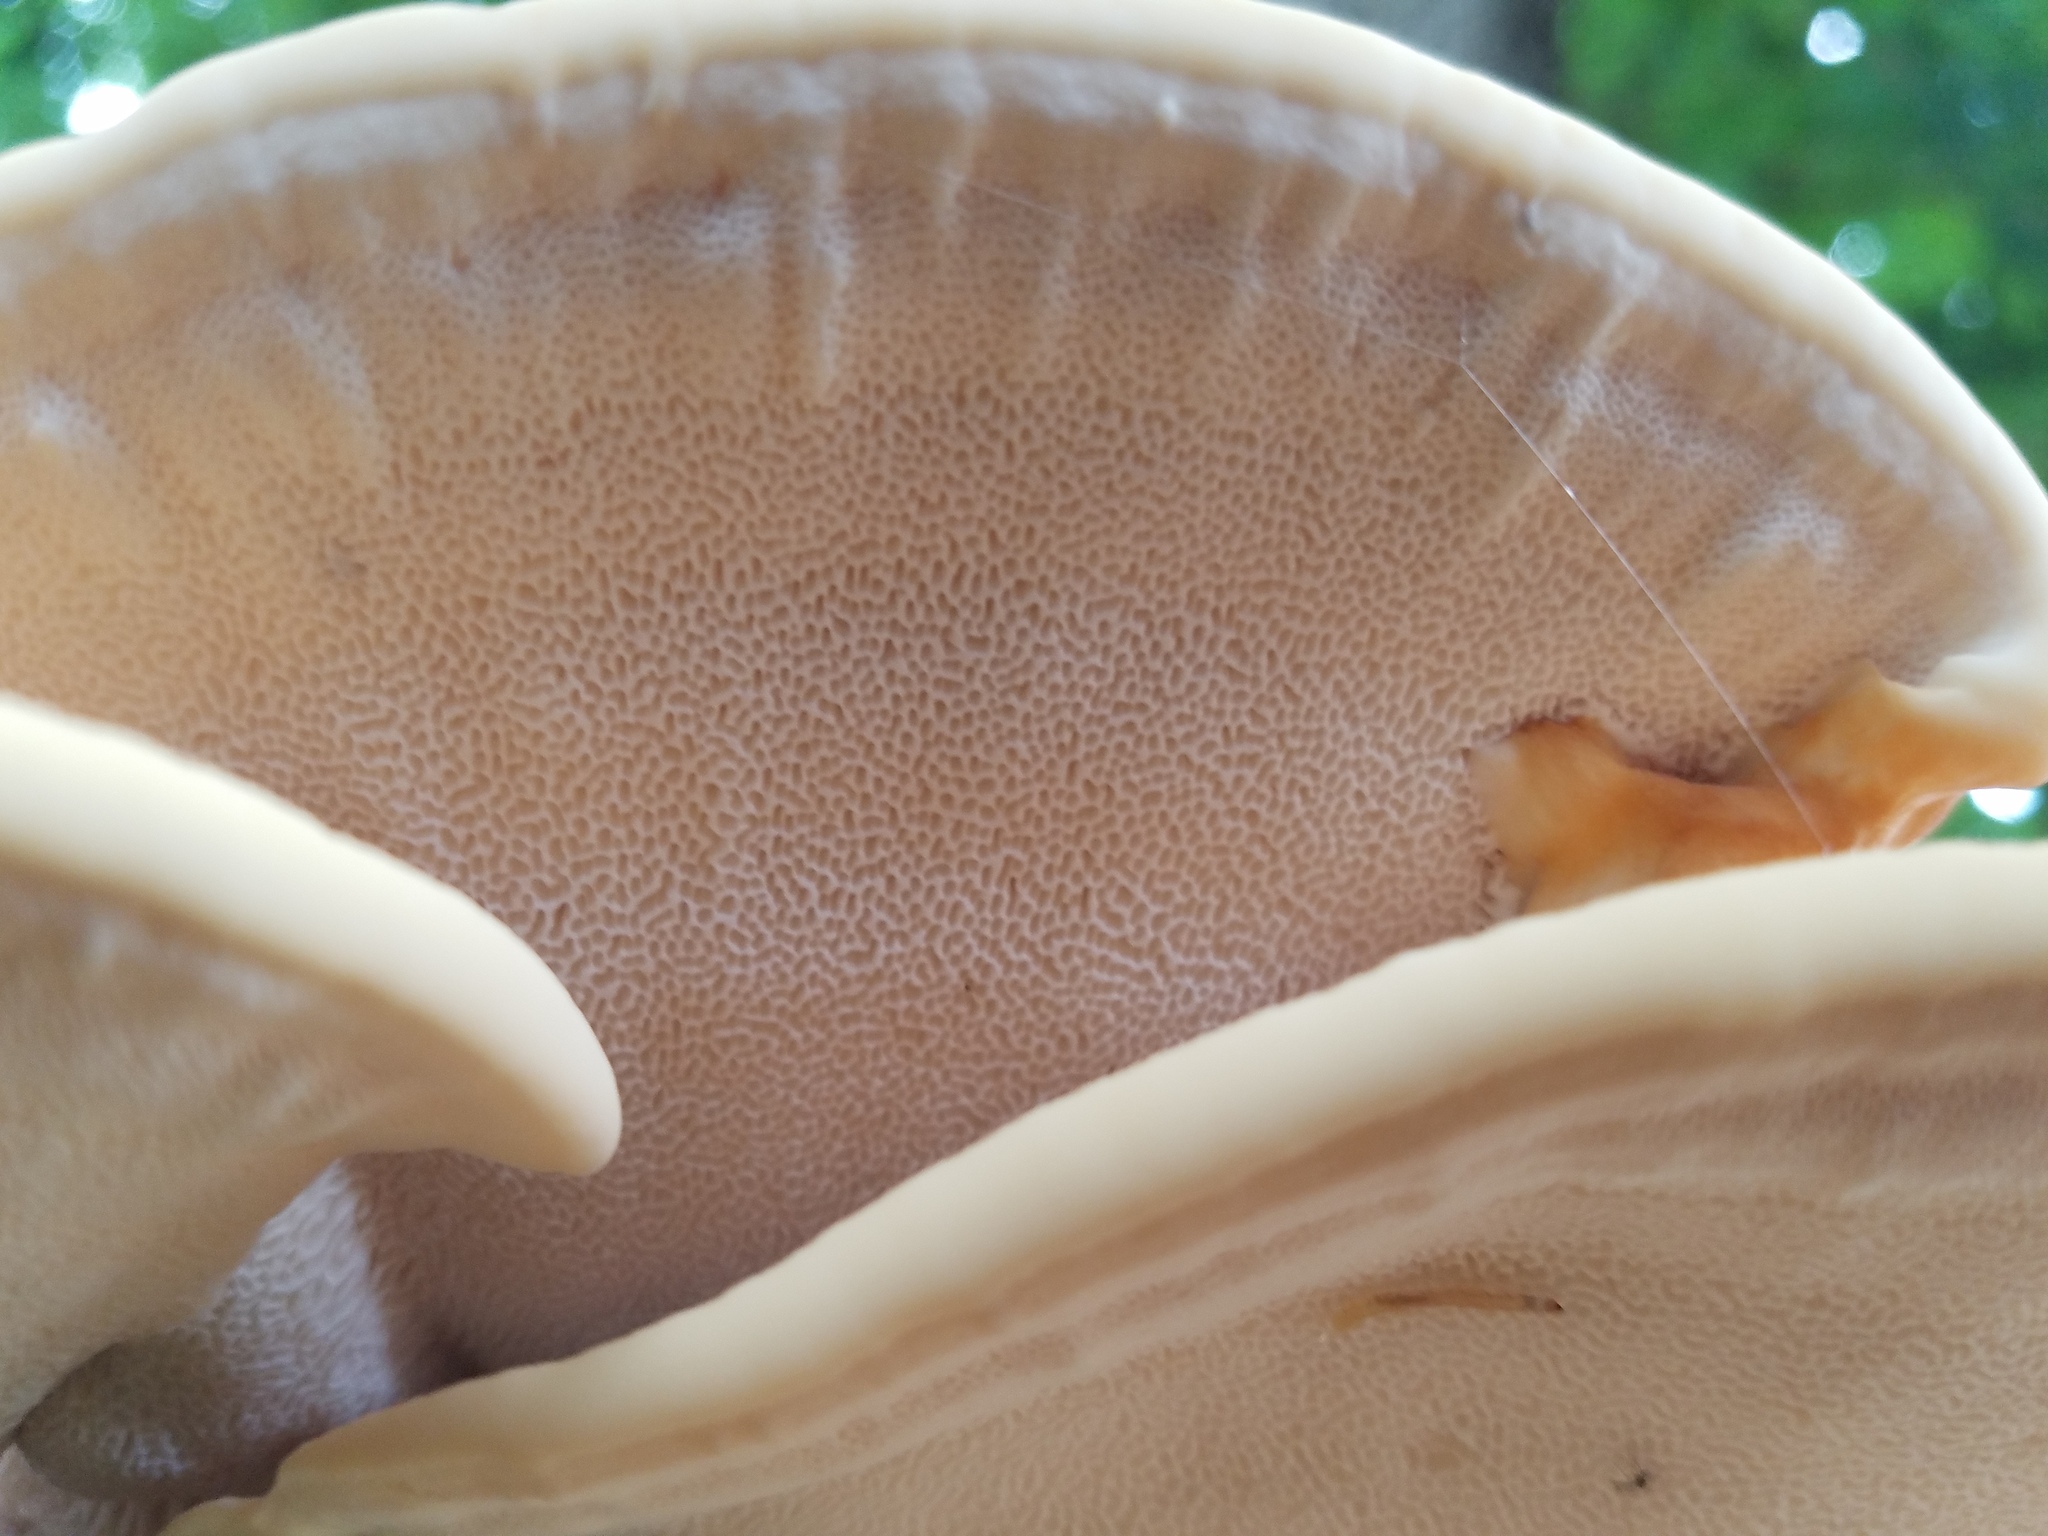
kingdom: Fungi
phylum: Basidiomycota
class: Agaricomycetes
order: Russulales
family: Bondarzewiaceae
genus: Bondarzewia
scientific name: Bondarzewia berkeleyi
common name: Berkeley's polypore
